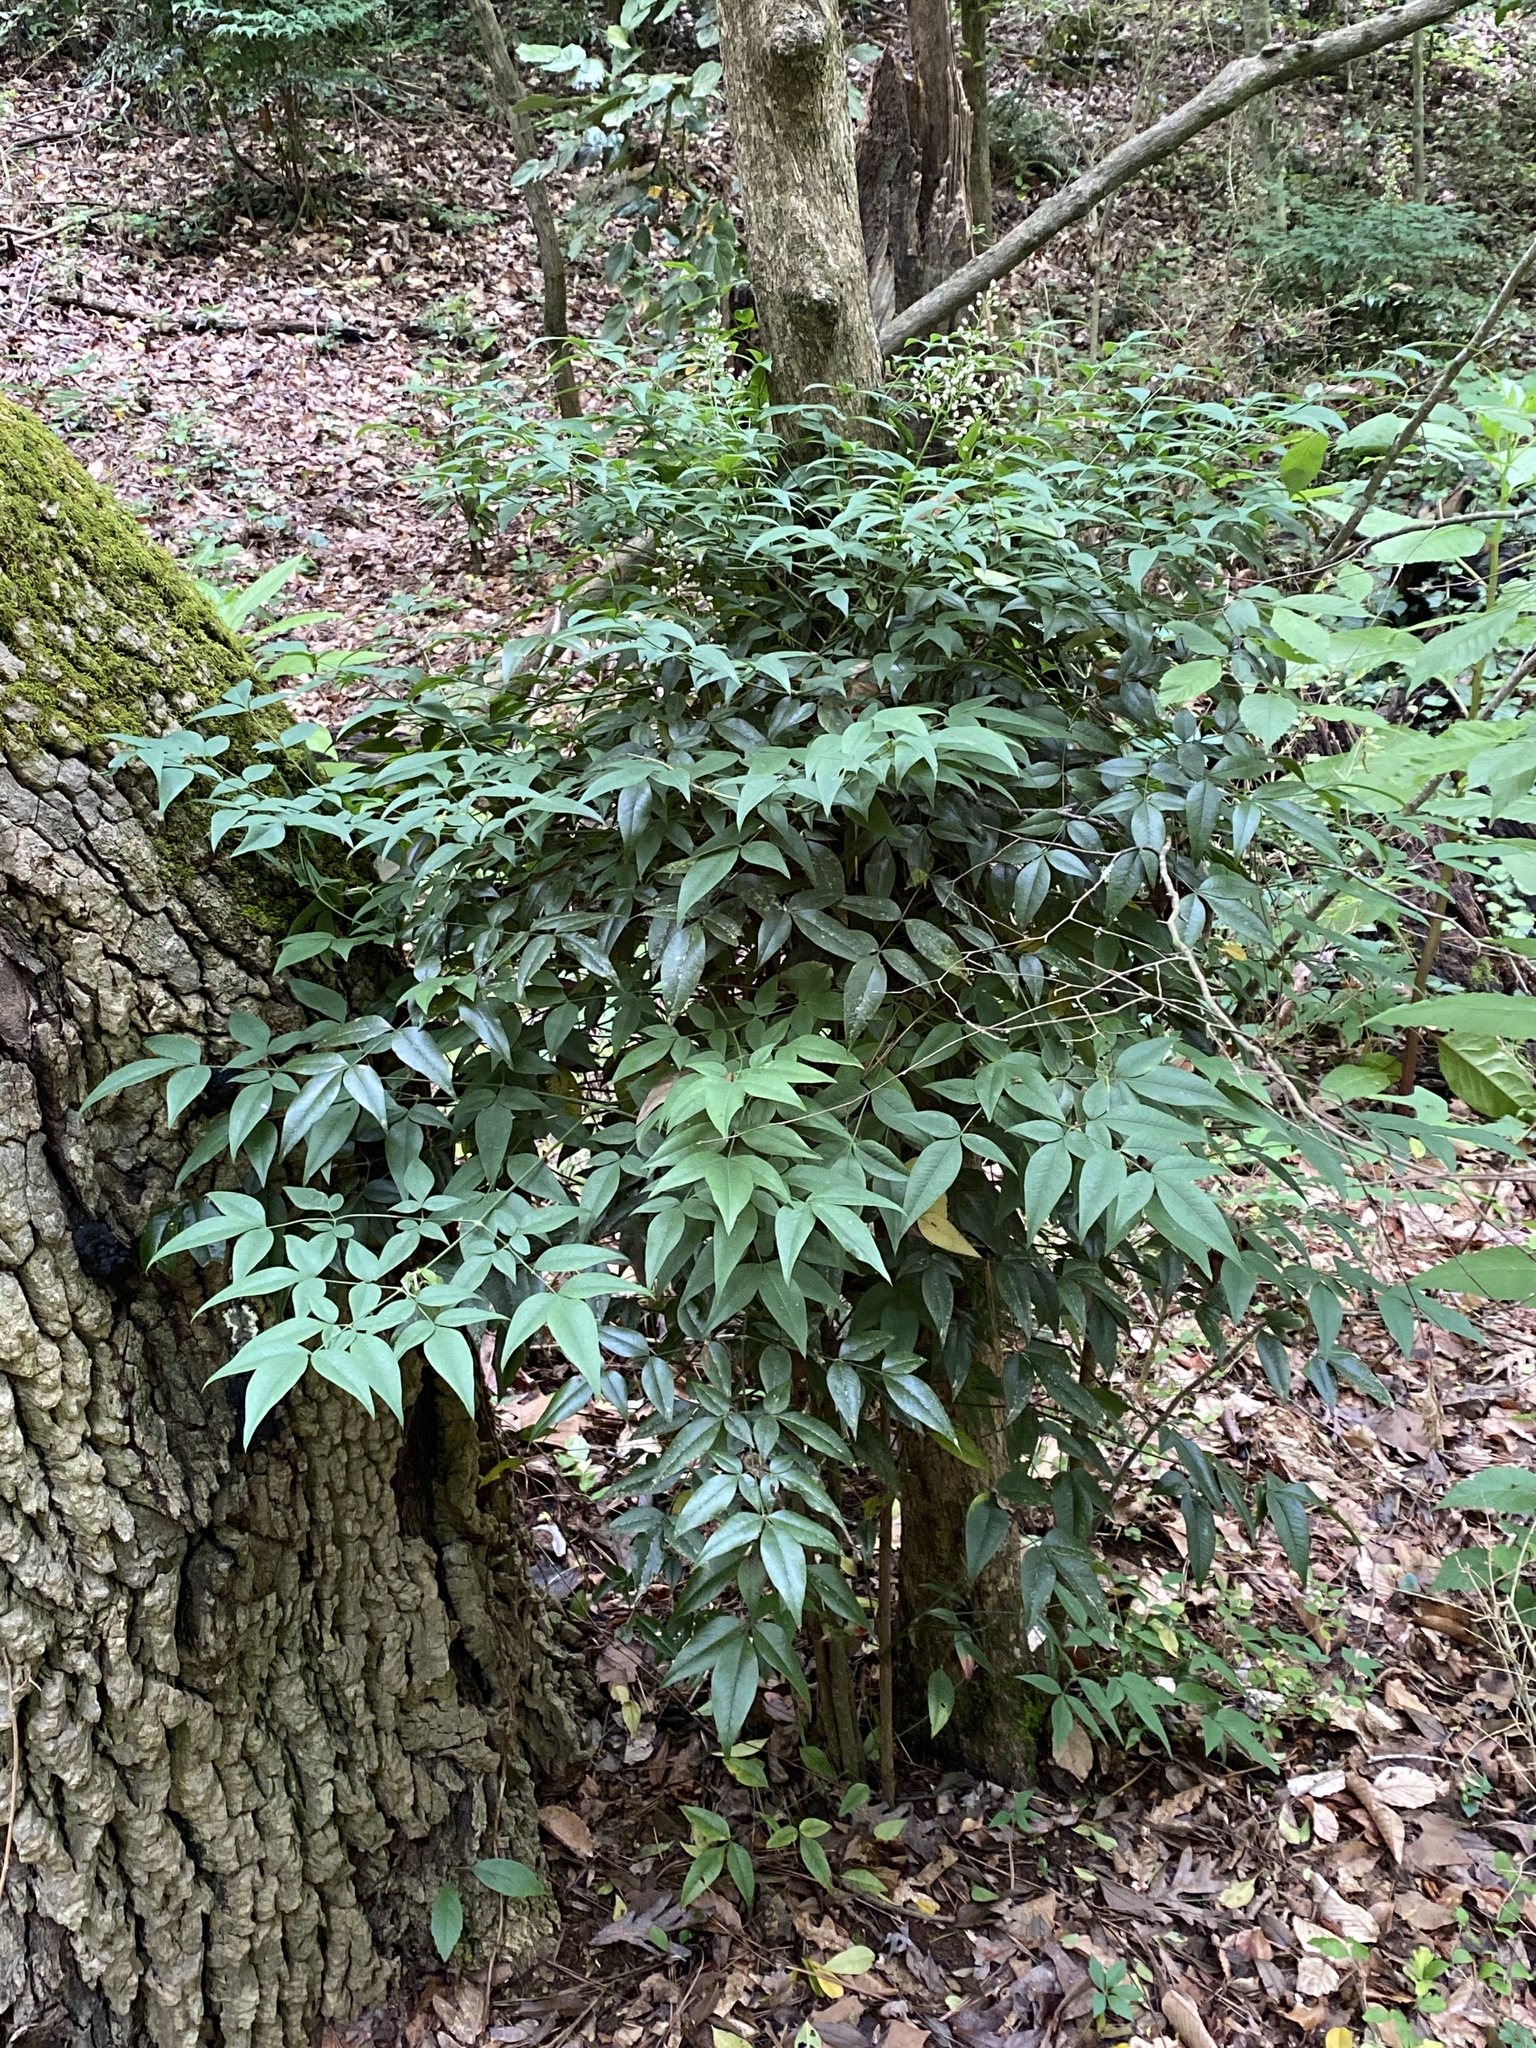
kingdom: Plantae
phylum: Tracheophyta
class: Magnoliopsida
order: Ranunculales
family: Berberidaceae
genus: Nandina
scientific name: Nandina domestica
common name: Sacred bamboo
